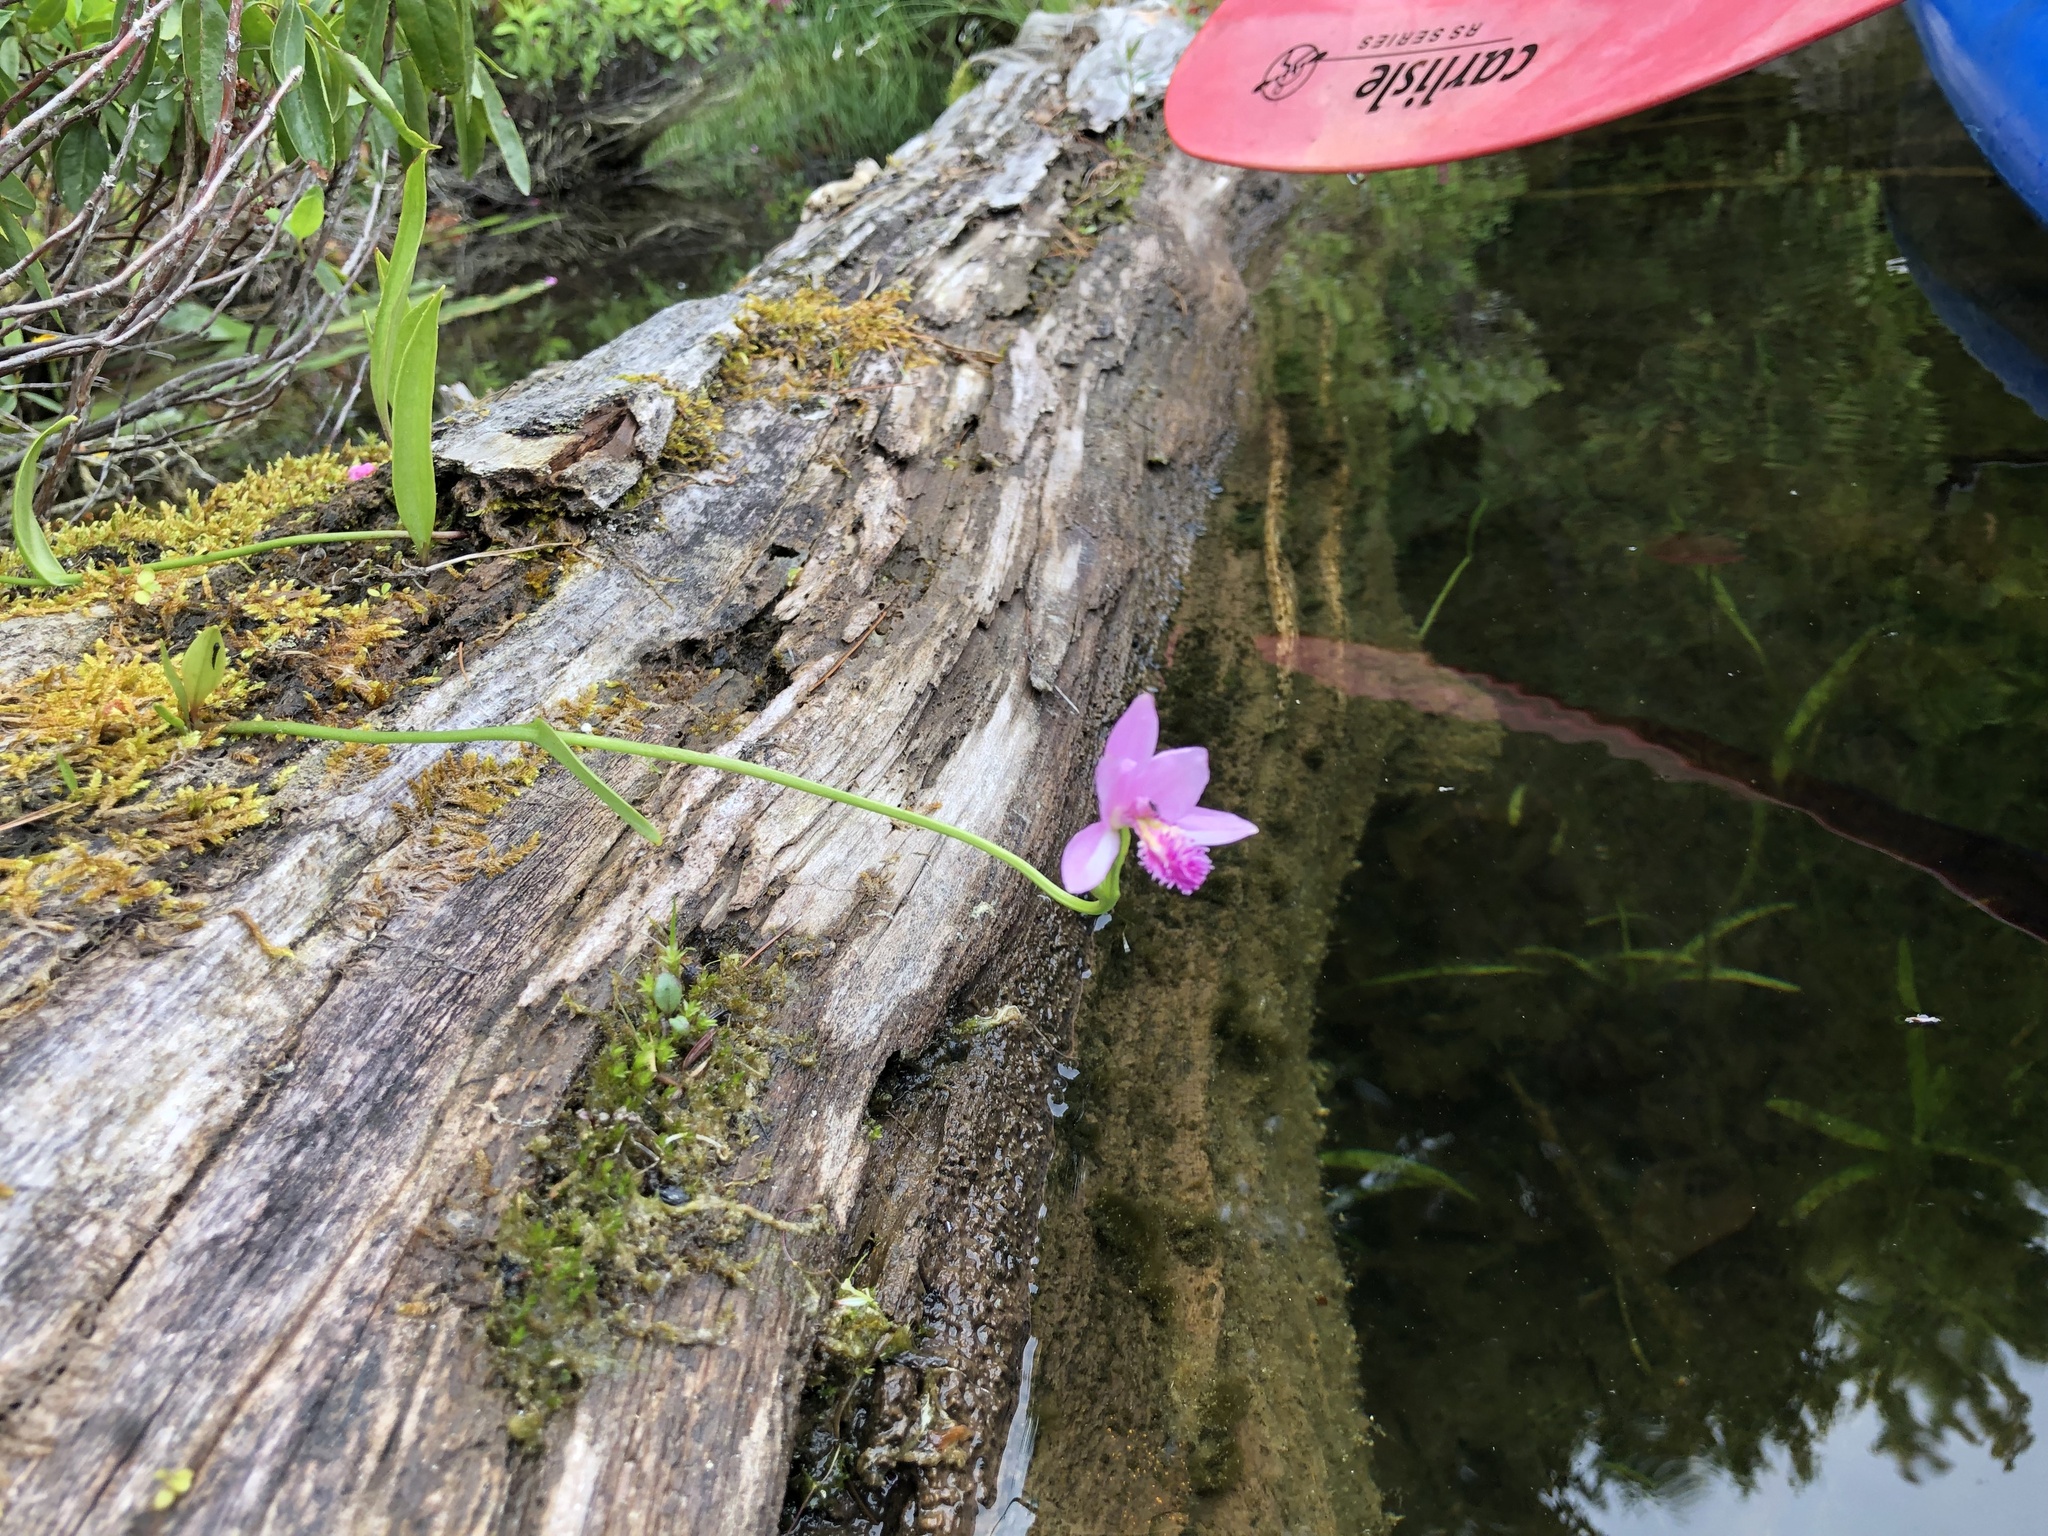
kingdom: Plantae
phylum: Tracheophyta
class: Liliopsida
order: Asparagales
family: Orchidaceae
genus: Pogonia
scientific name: Pogonia ophioglossoides
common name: Rose pogonia
